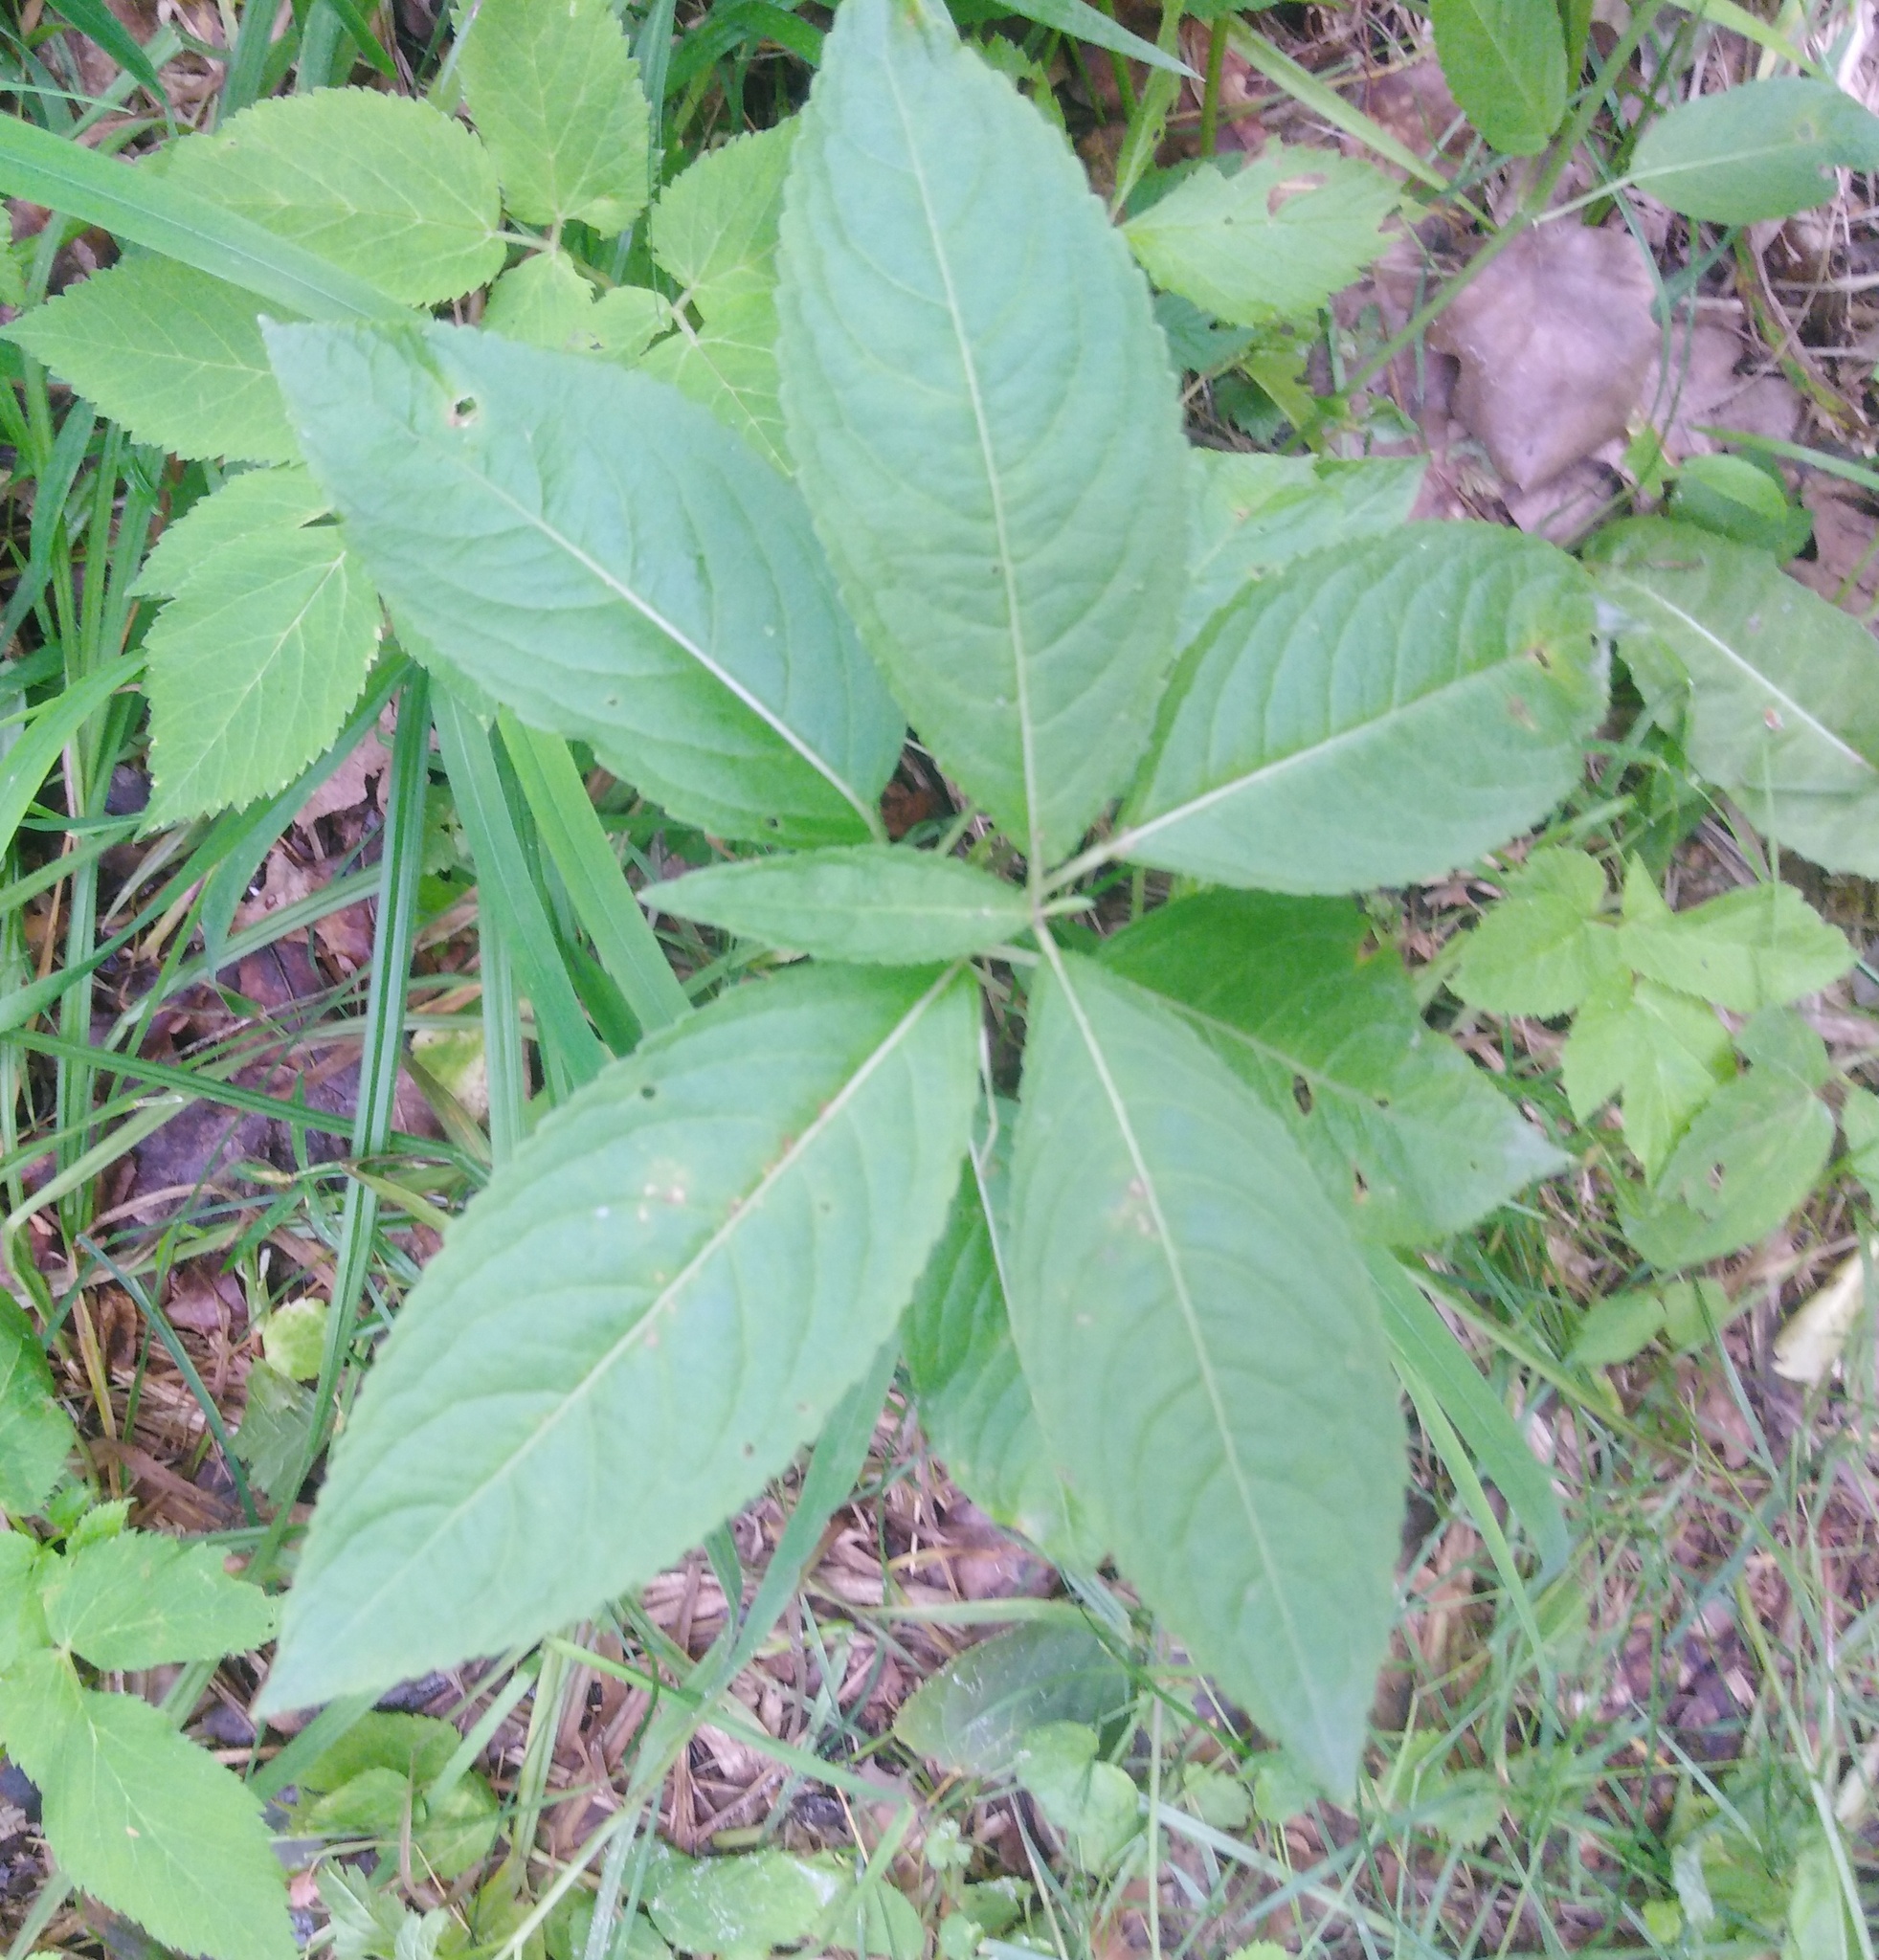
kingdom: Plantae
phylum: Tracheophyta
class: Magnoliopsida
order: Malpighiales
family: Euphorbiaceae
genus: Mercurialis
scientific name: Mercurialis perennis
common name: Dog mercury
